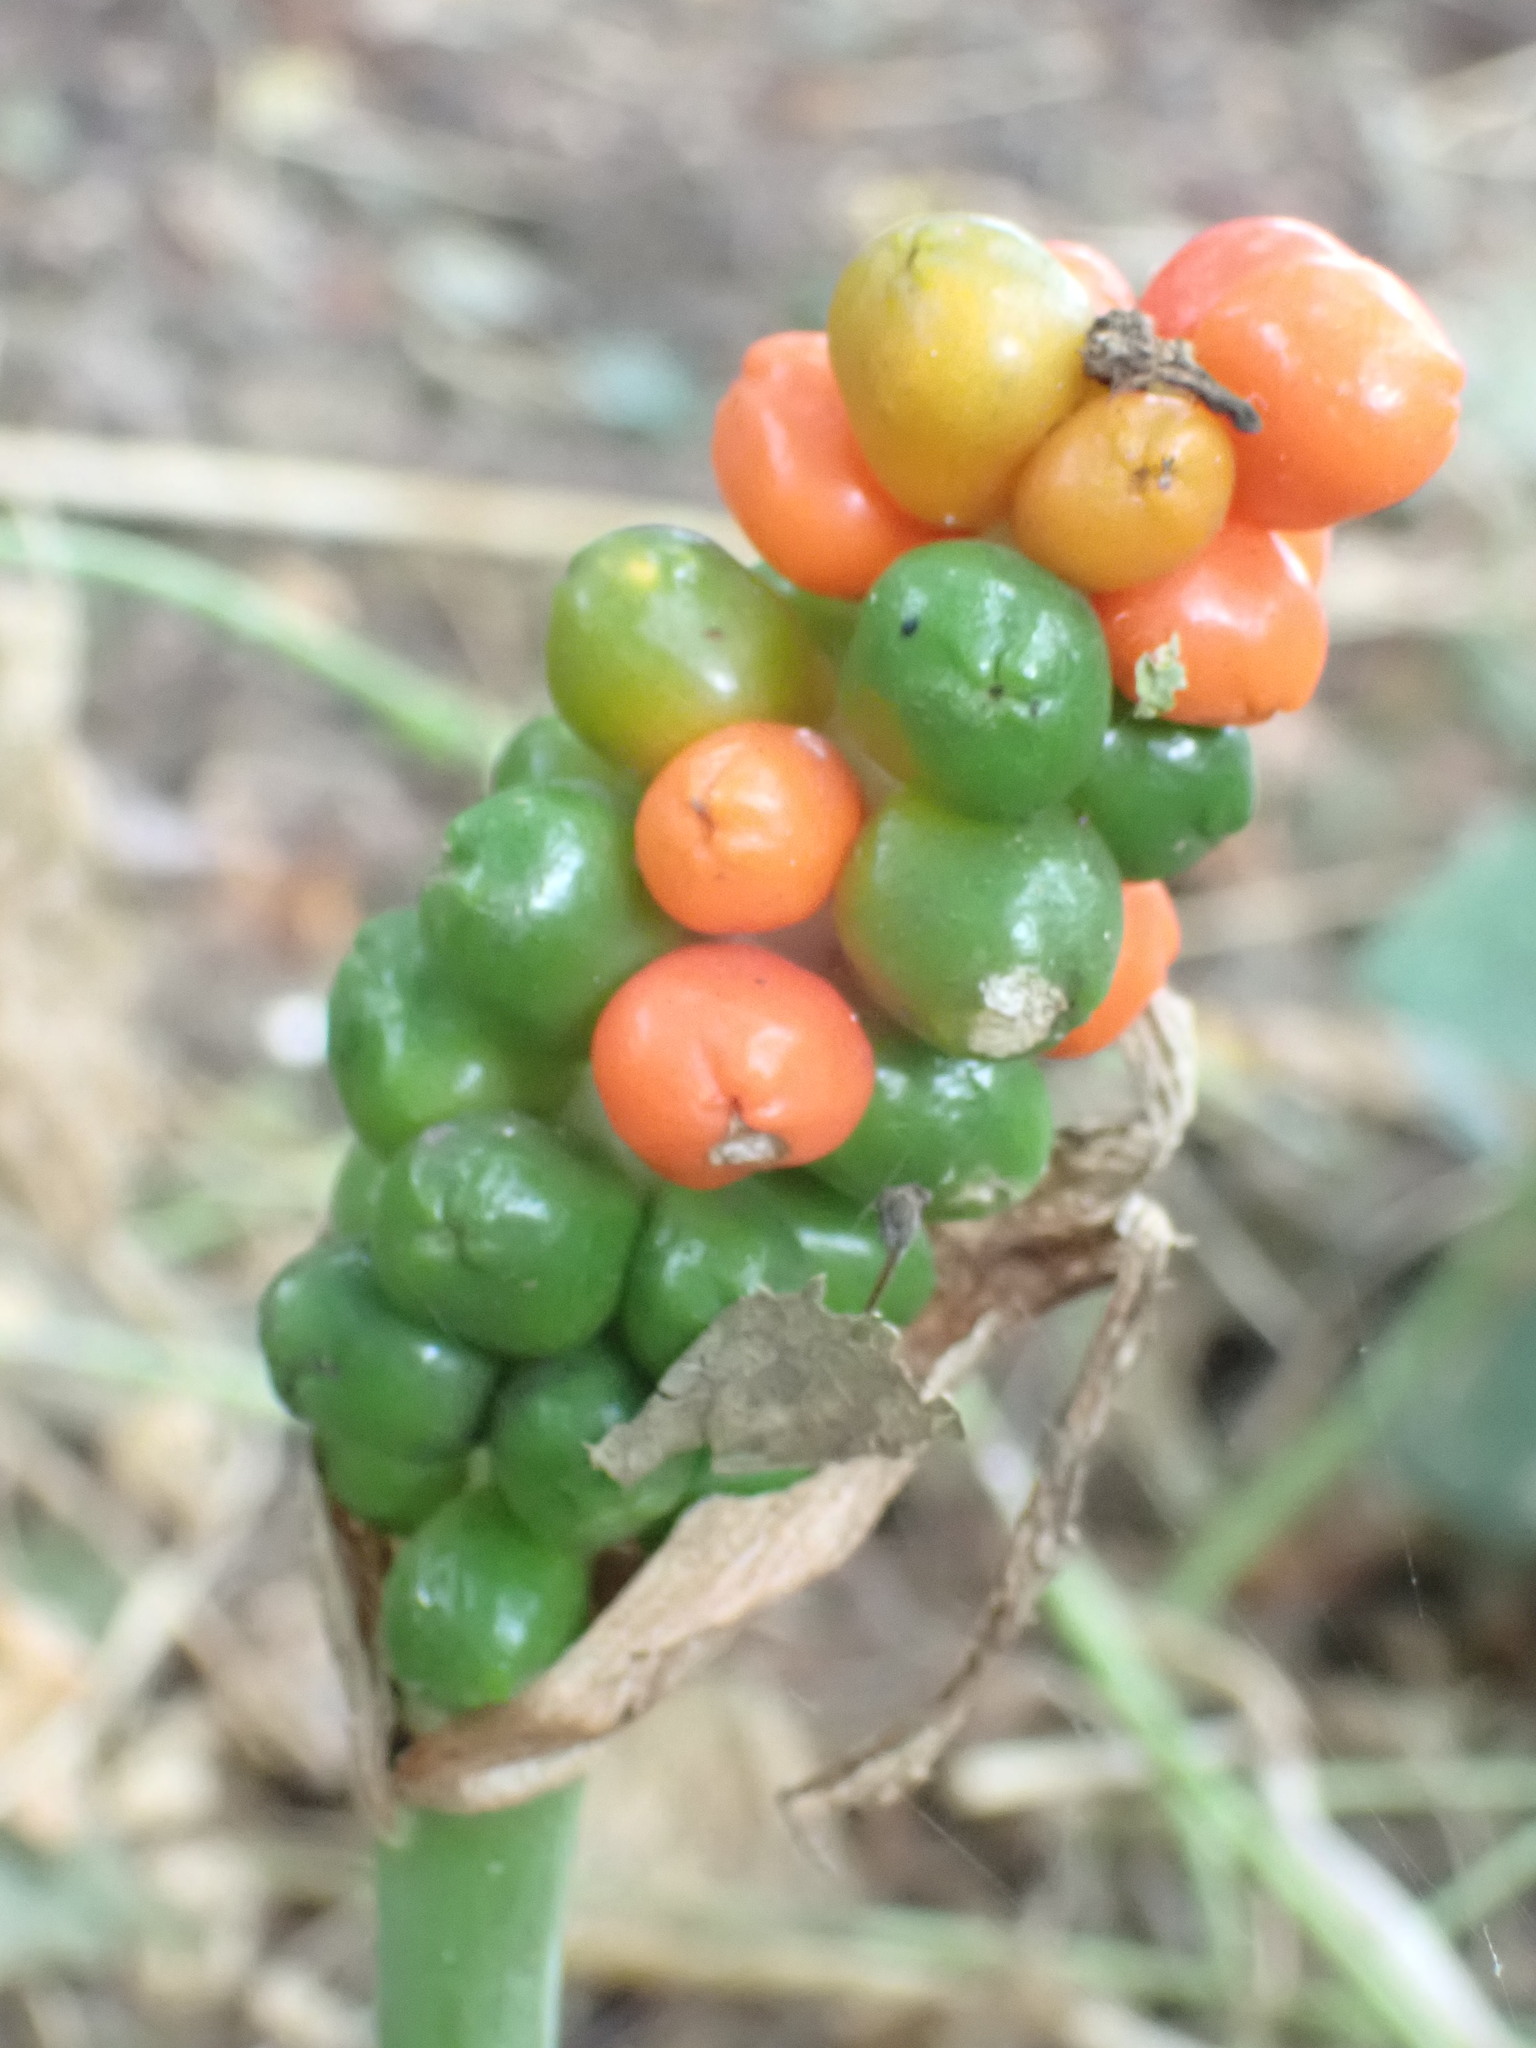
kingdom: Plantae
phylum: Tracheophyta
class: Liliopsida
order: Alismatales
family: Araceae
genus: Arum
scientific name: Arum maculatum
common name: Lords-and-ladies
